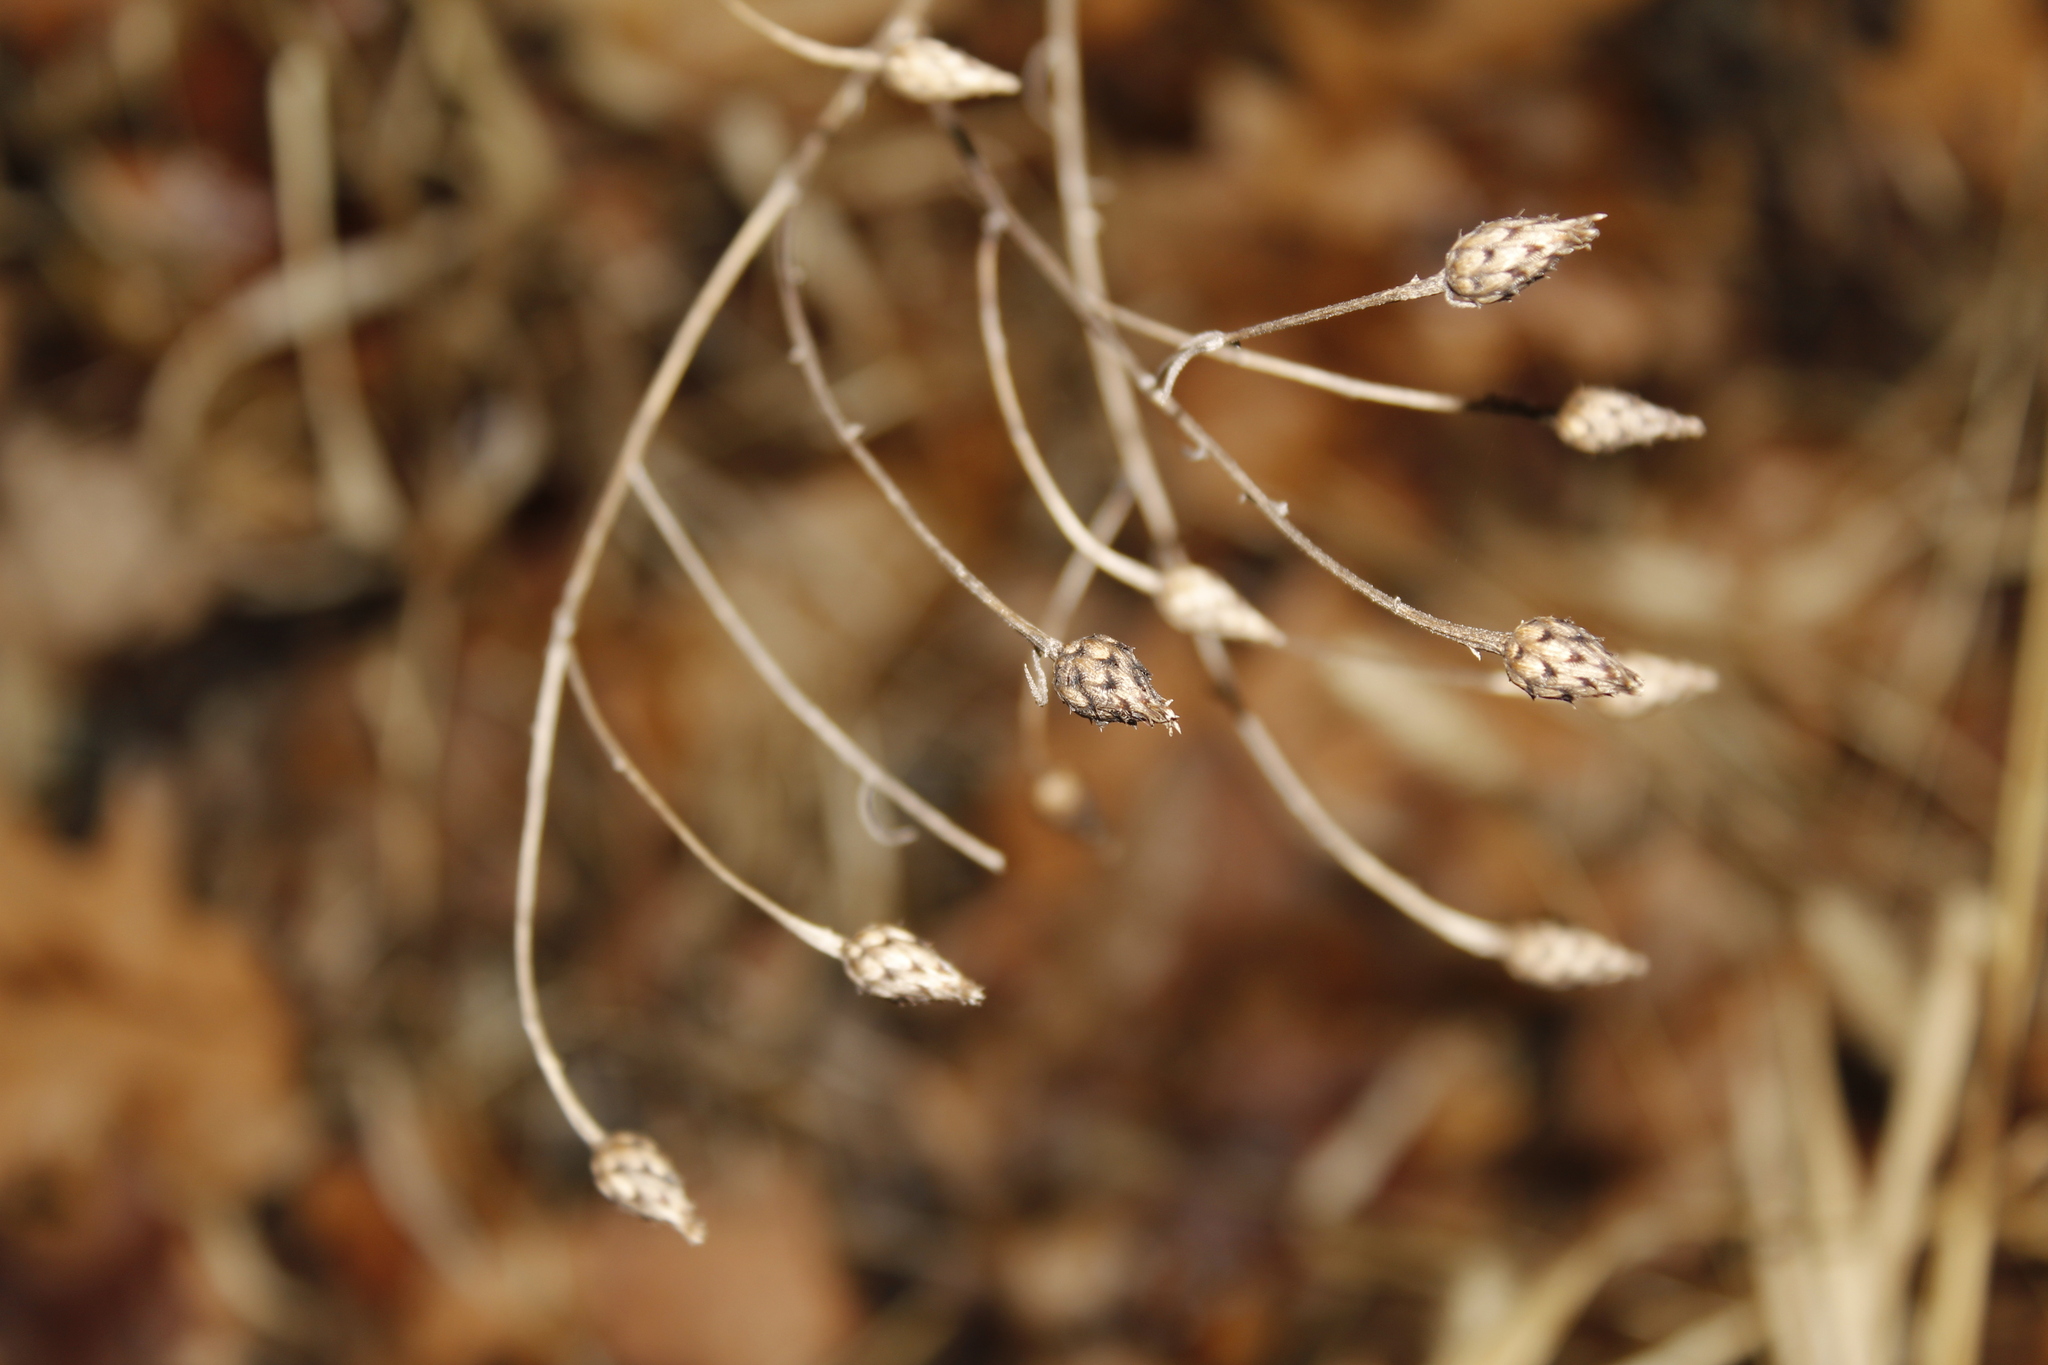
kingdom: Plantae
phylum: Tracheophyta
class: Magnoliopsida
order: Asterales
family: Asteraceae
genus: Centaurea
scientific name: Centaurea stoebe
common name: Spotted knapweed
